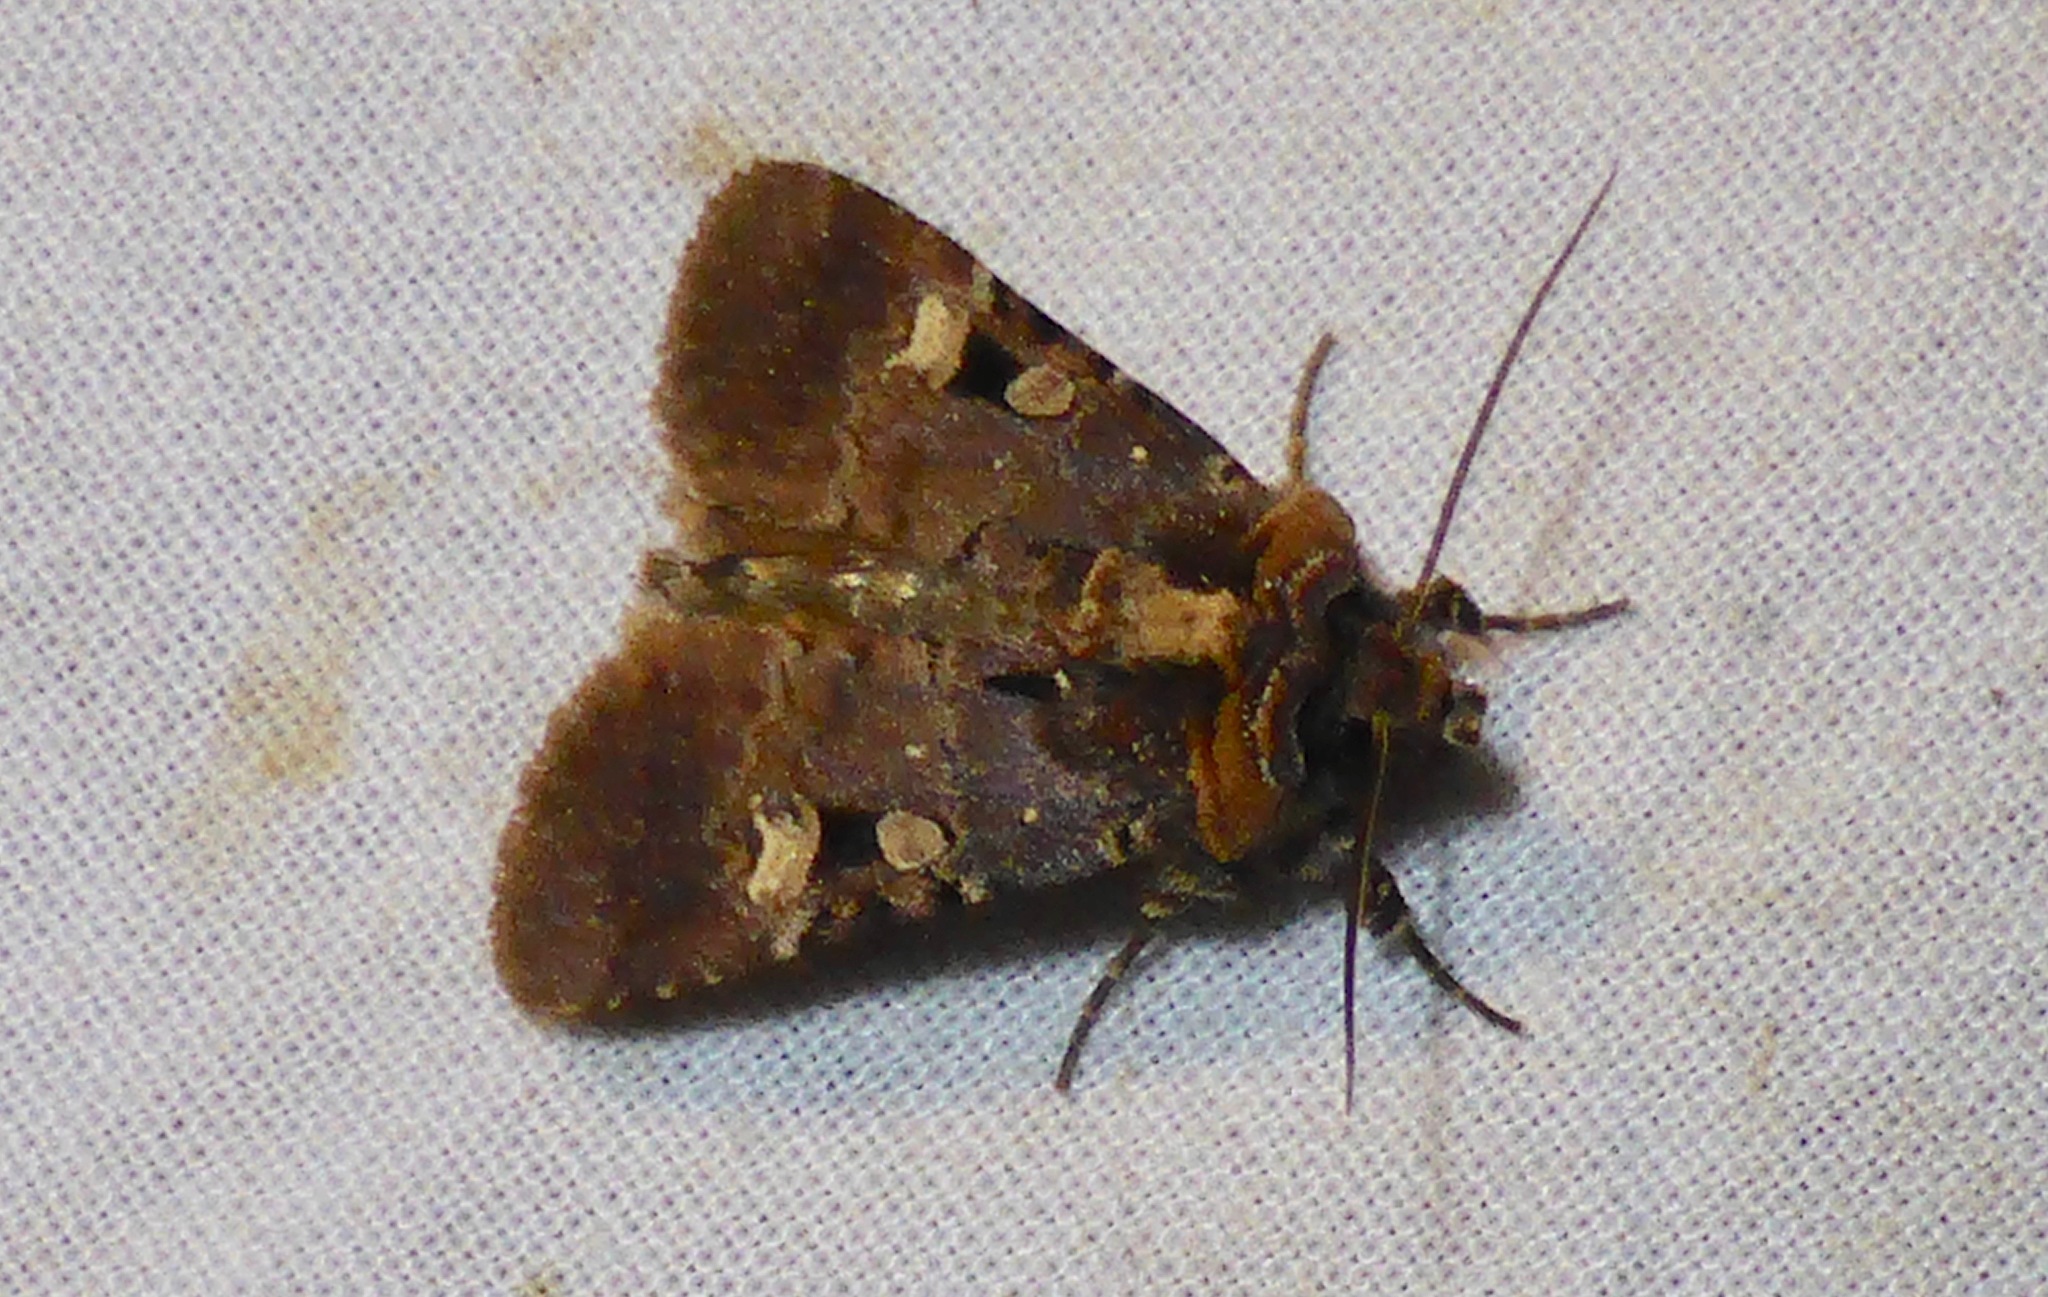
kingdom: Animalia
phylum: Arthropoda
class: Insecta
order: Lepidoptera
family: Noctuidae
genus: Austramathes
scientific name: Austramathes
